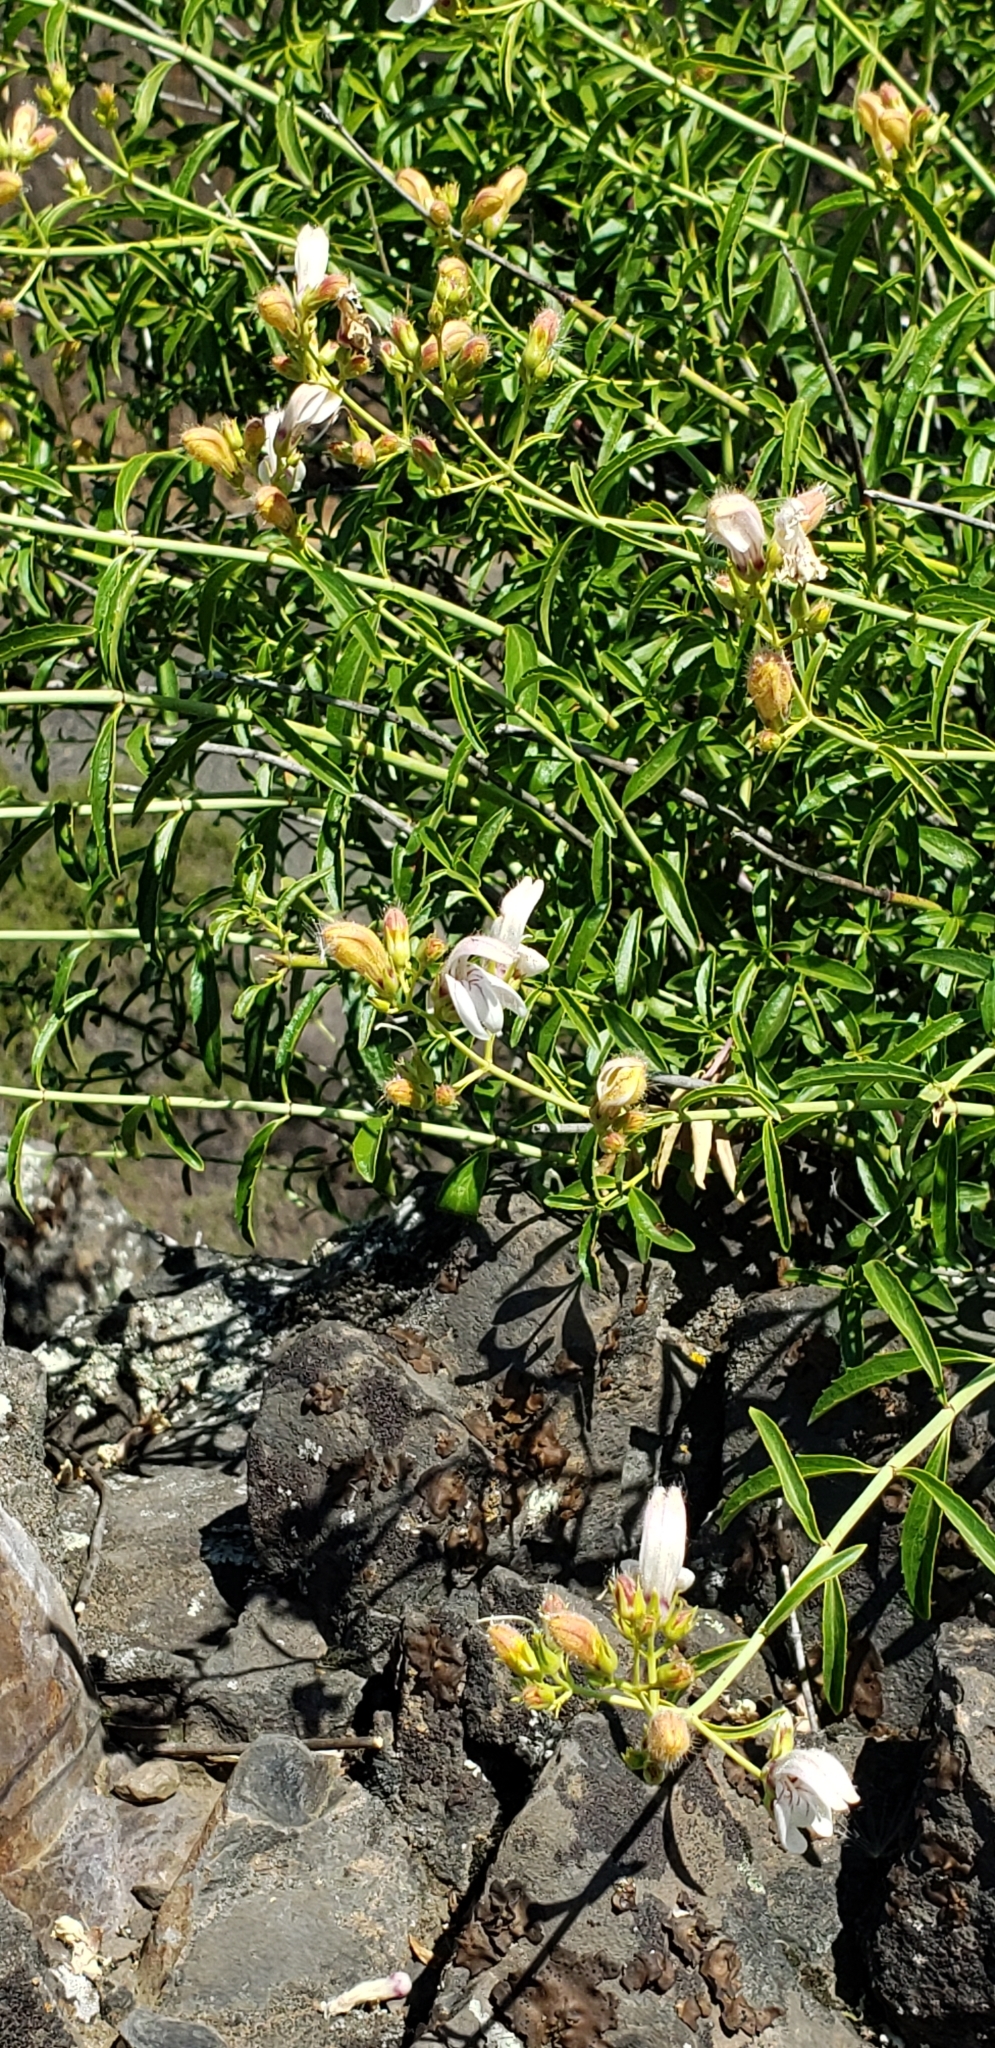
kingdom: Plantae
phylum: Tracheophyta
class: Magnoliopsida
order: Lamiales
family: Plantaginaceae
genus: Keckiella
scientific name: Keckiella breviflora
